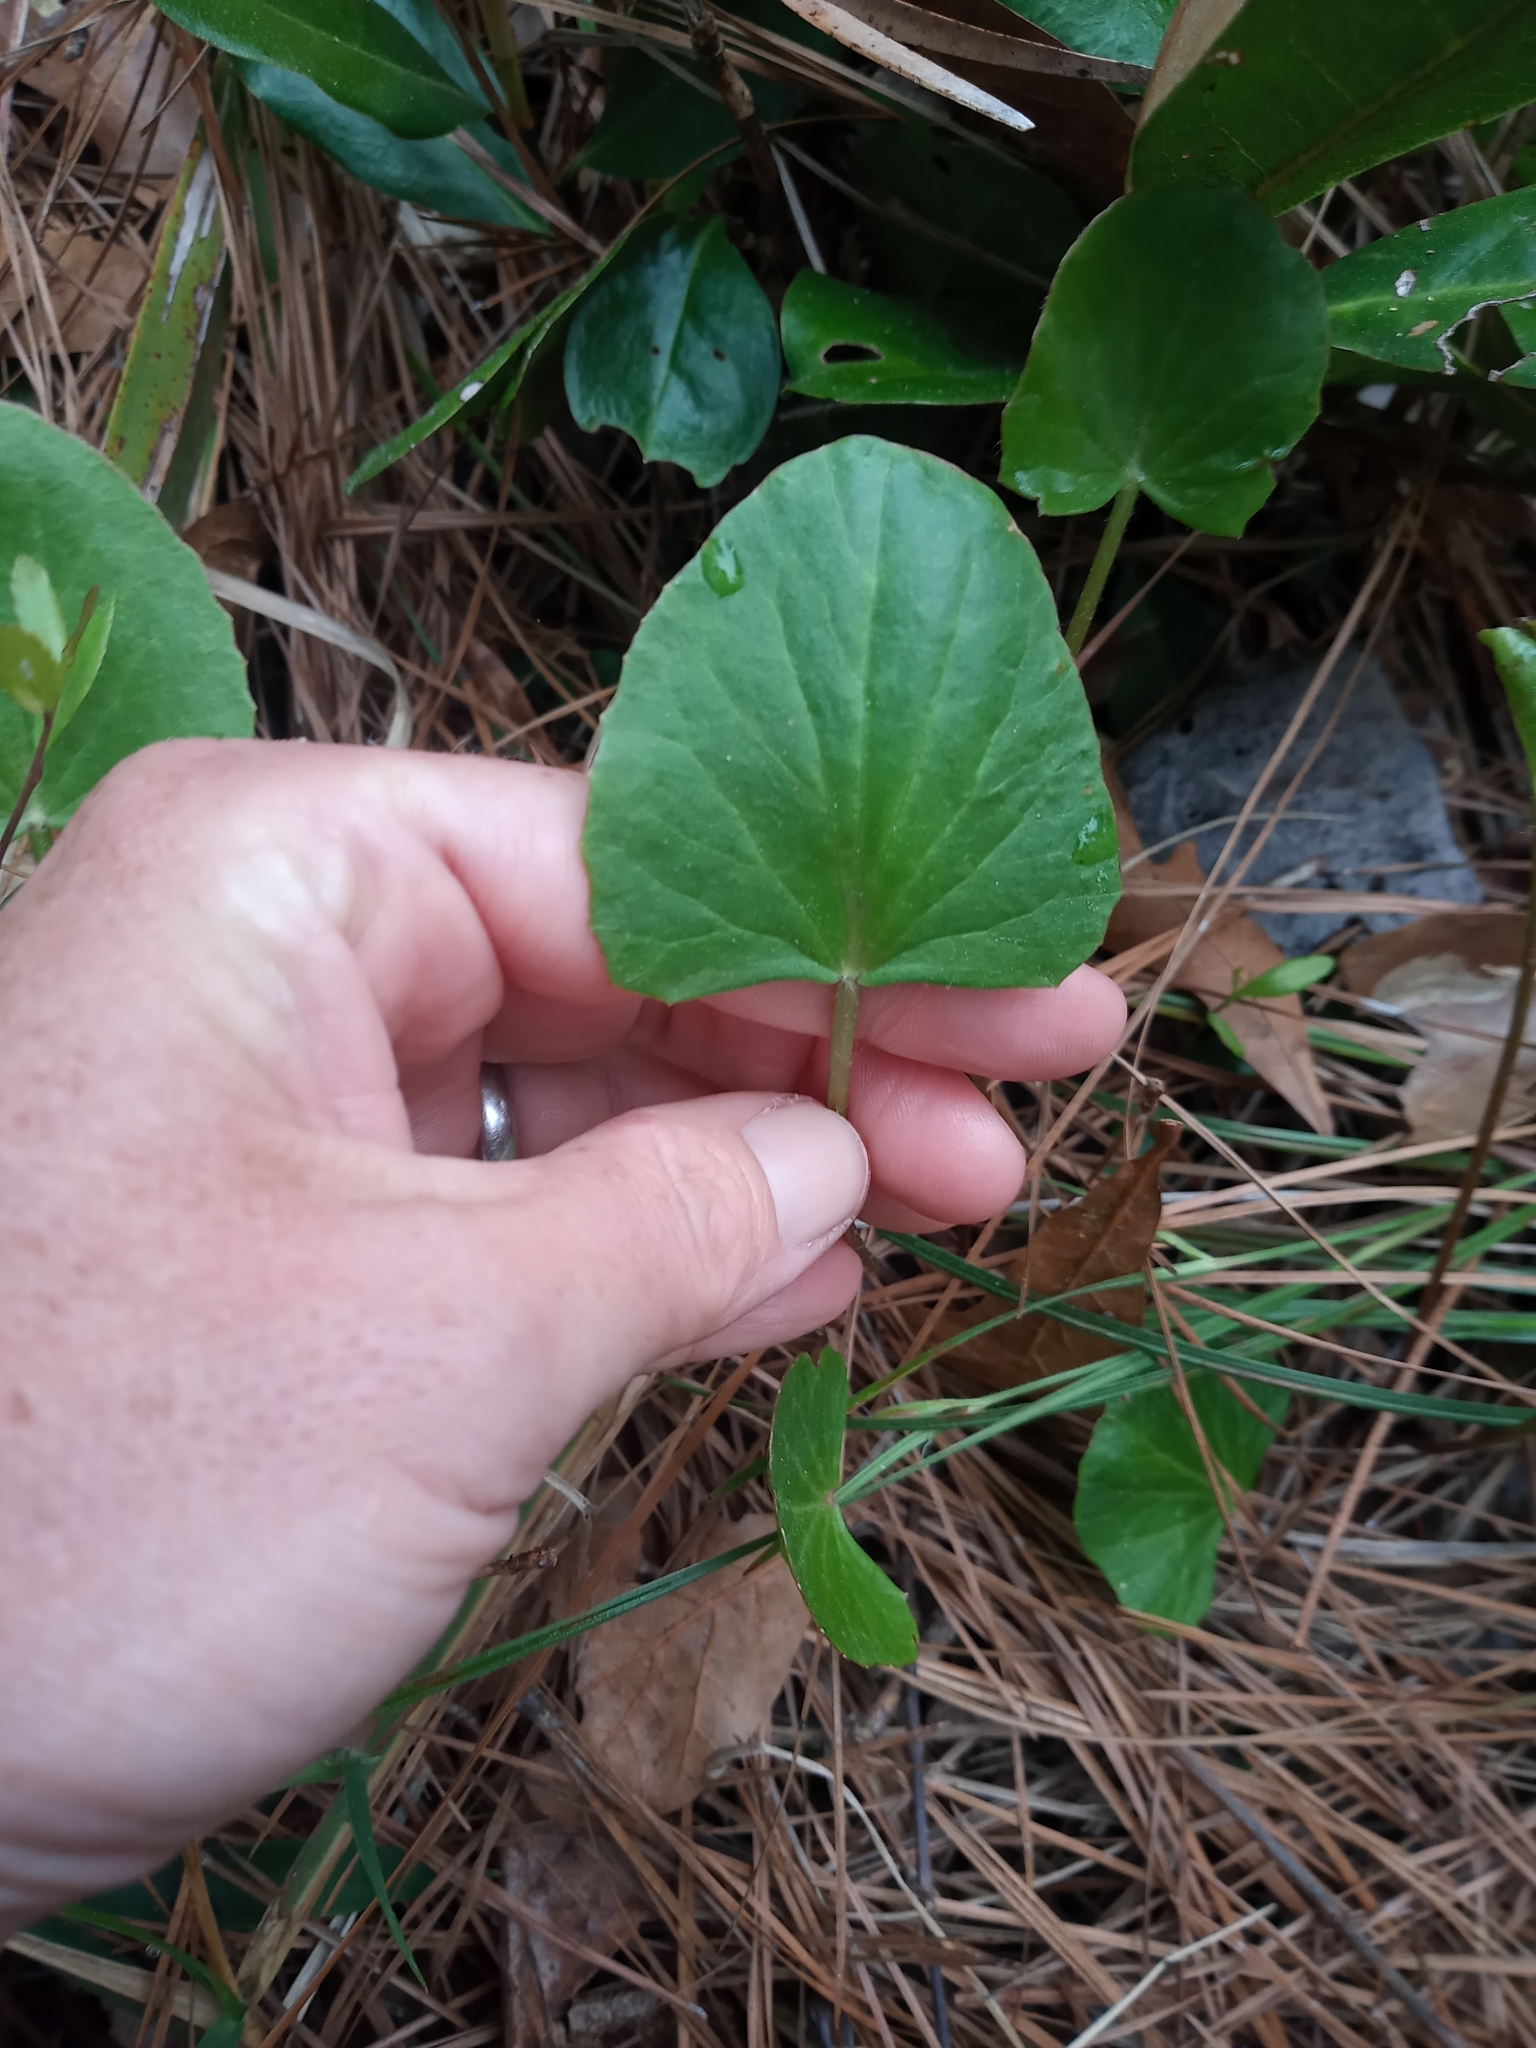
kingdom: Plantae
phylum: Tracheophyta
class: Magnoliopsida
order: Apiales
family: Apiaceae
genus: Centella
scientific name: Centella erecta
